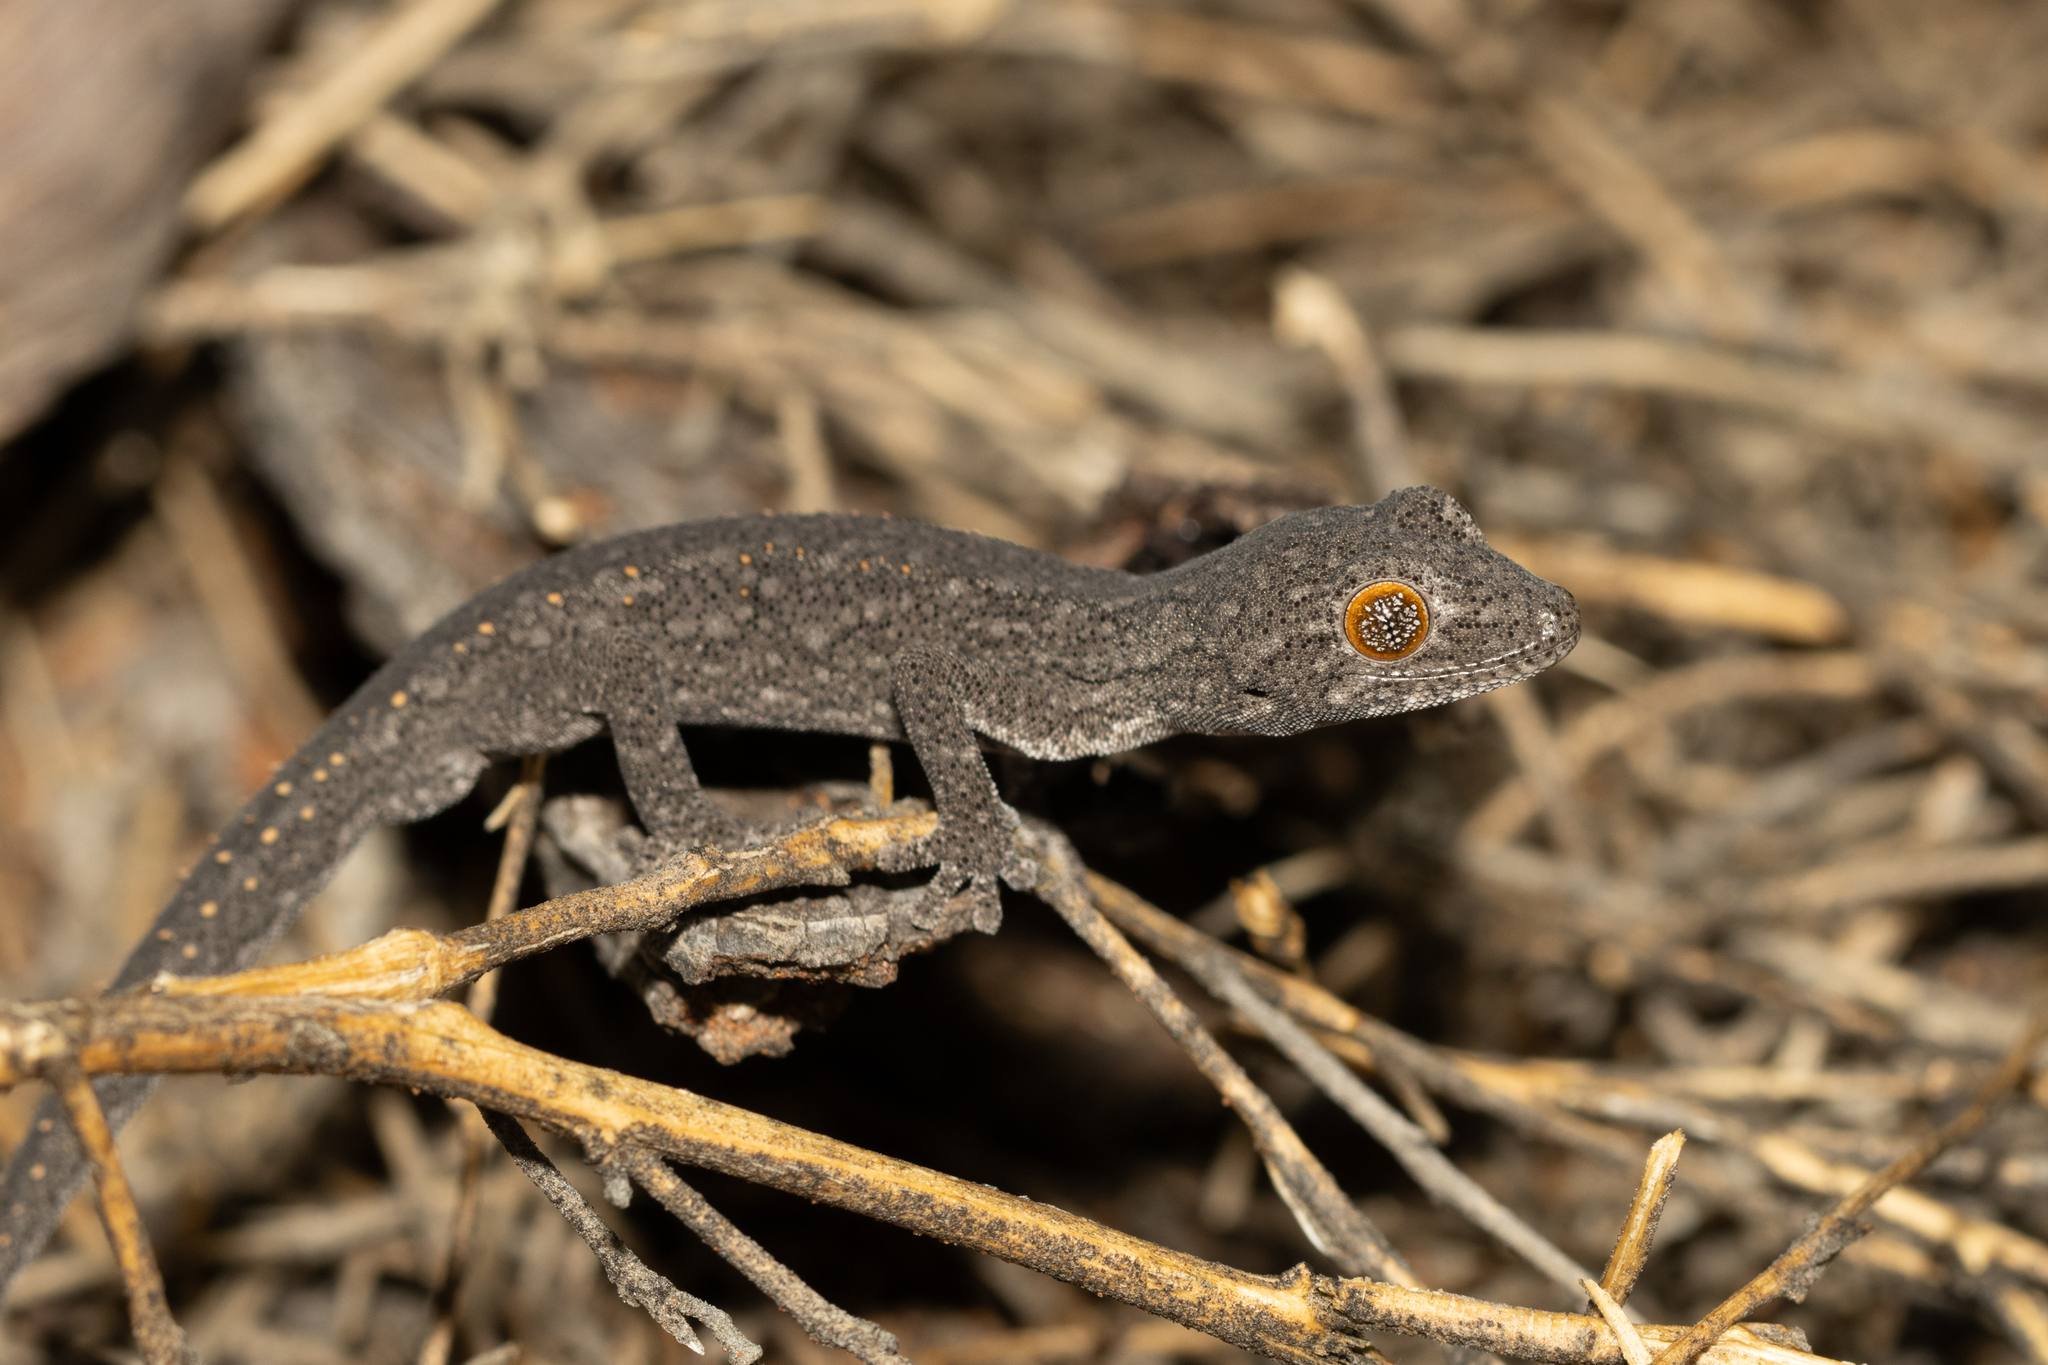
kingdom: Animalia
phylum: Chordata
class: Squamata
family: Diplodactylidae
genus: Strophurus
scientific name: Strophurus williamsi
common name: Eastern spiny-tailed gecko
